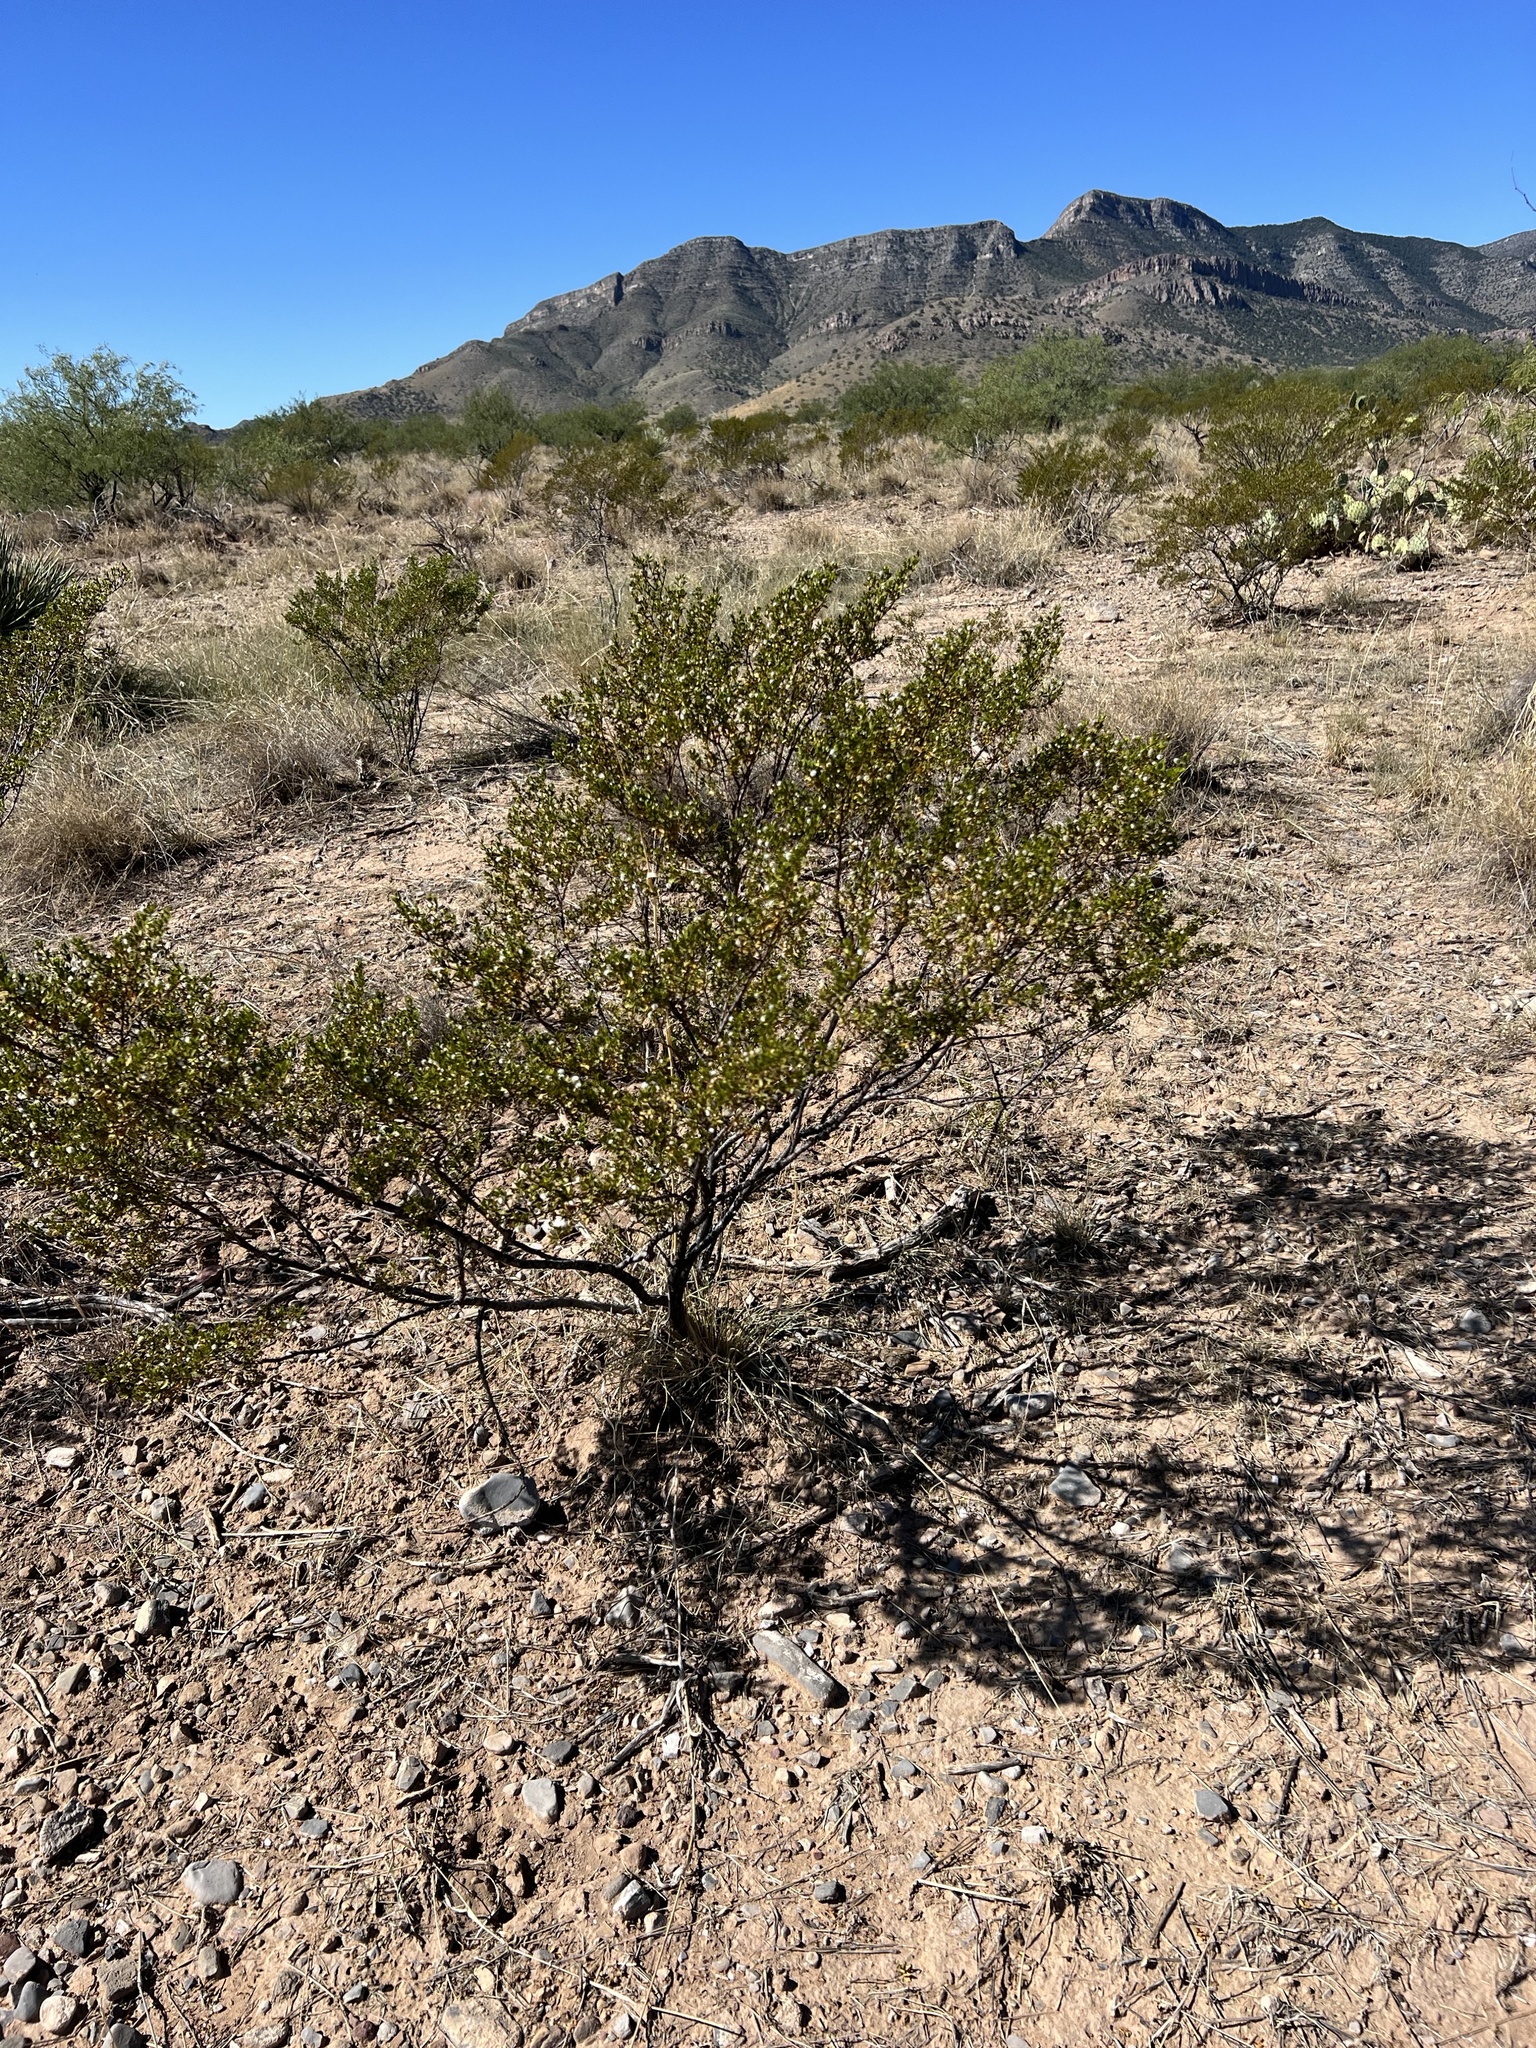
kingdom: Plantae
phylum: Tracheophyta
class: Magnoliopsida
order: Zygophyllales
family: Zygophyllaceae
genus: Larrea
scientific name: Larrea tridentata
